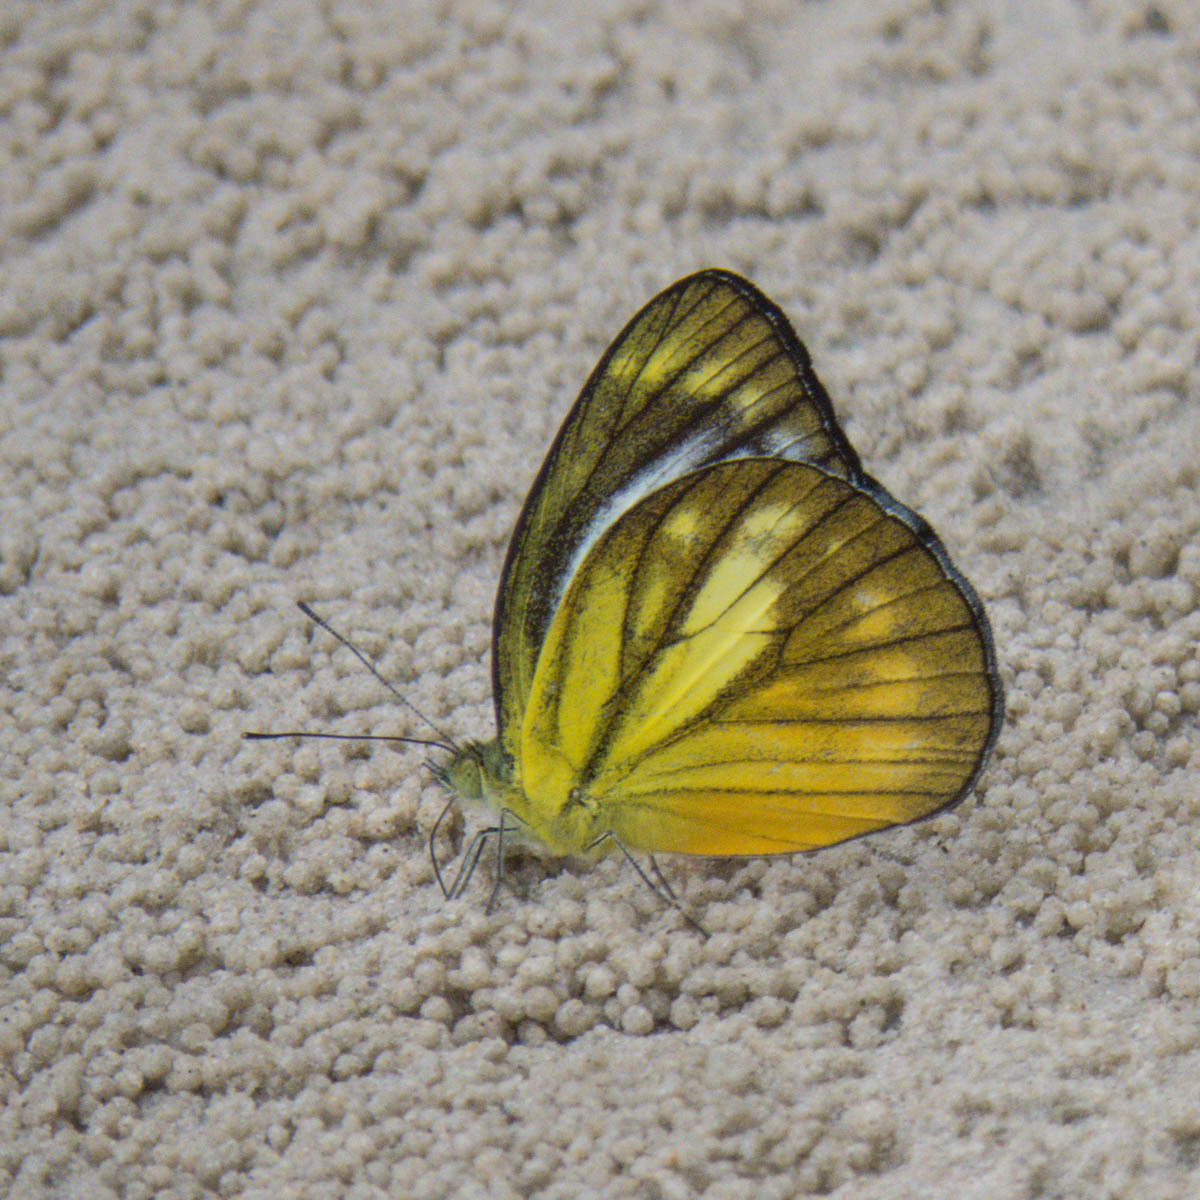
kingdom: Animalia
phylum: Arthropoda
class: Insecta
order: Lepidoptera
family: Pieridae
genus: Cepora
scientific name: Cepora nadina
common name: Lesser gull
